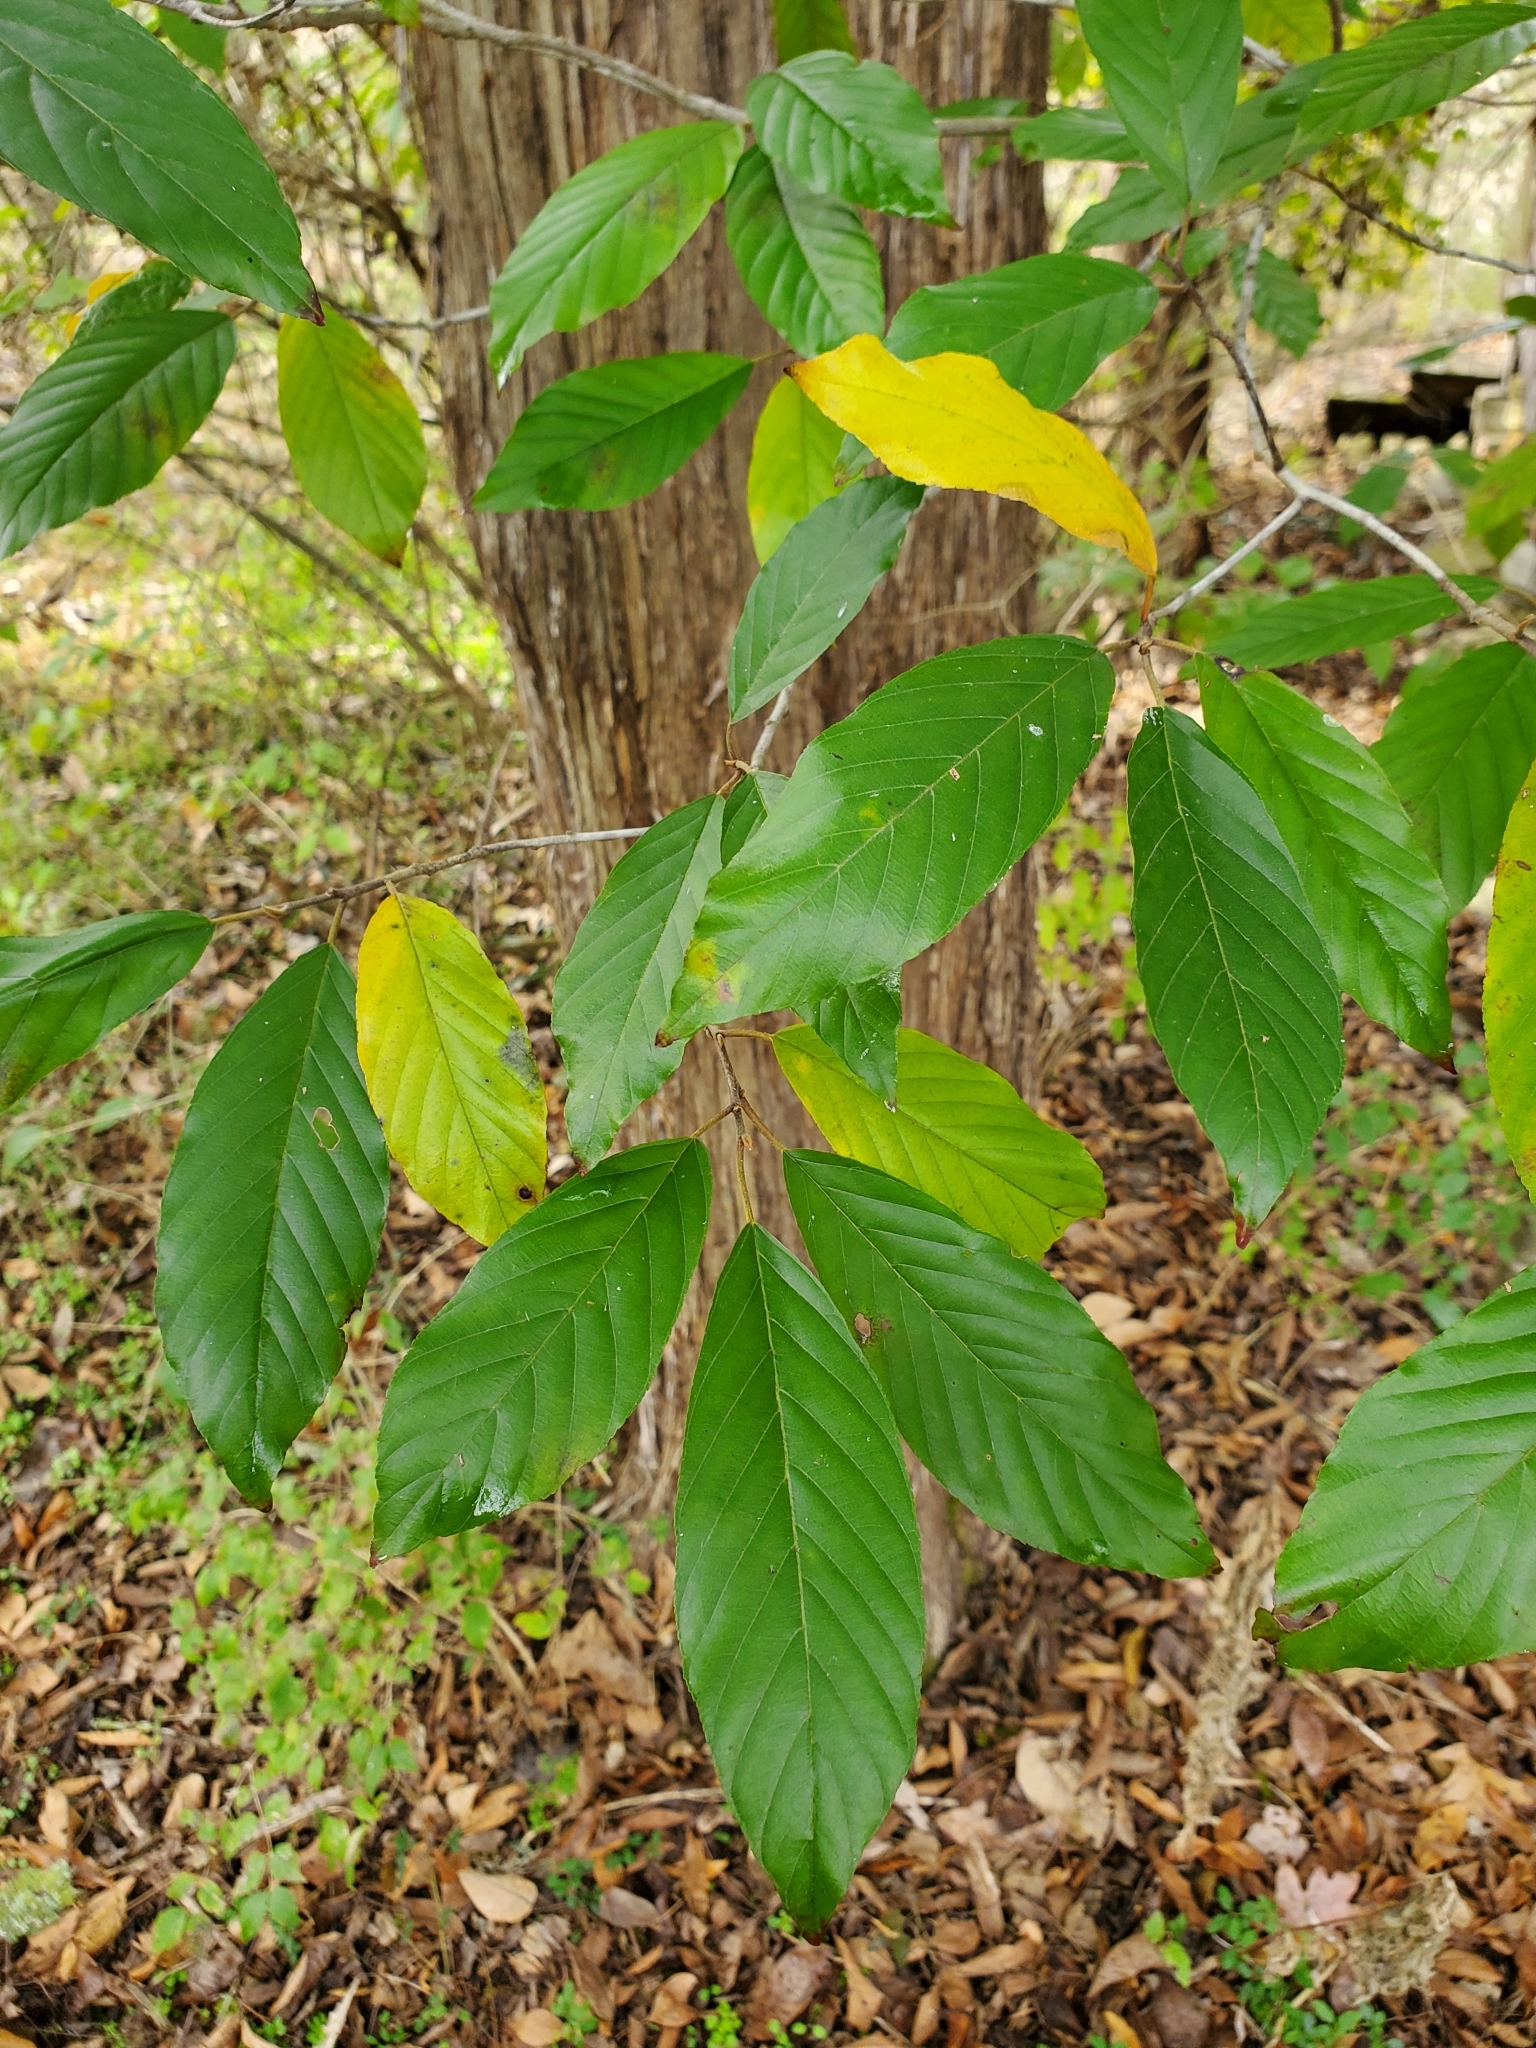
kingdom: Plantae
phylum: Tracheophyta
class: Magnoliopsida
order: Rosales
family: Rhamnaceae
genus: Frangula
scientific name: Frangula caroliniana
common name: Carolina buckthorn
